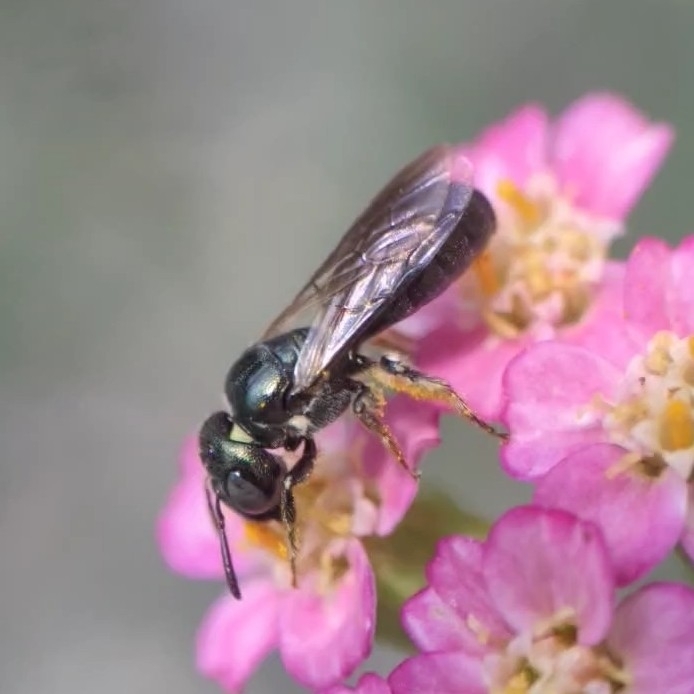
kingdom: Animalia
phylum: Arthropoda
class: Insecta
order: Hymenoptera
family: Apidae
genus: Zadontomerus
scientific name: Zadontomerus
